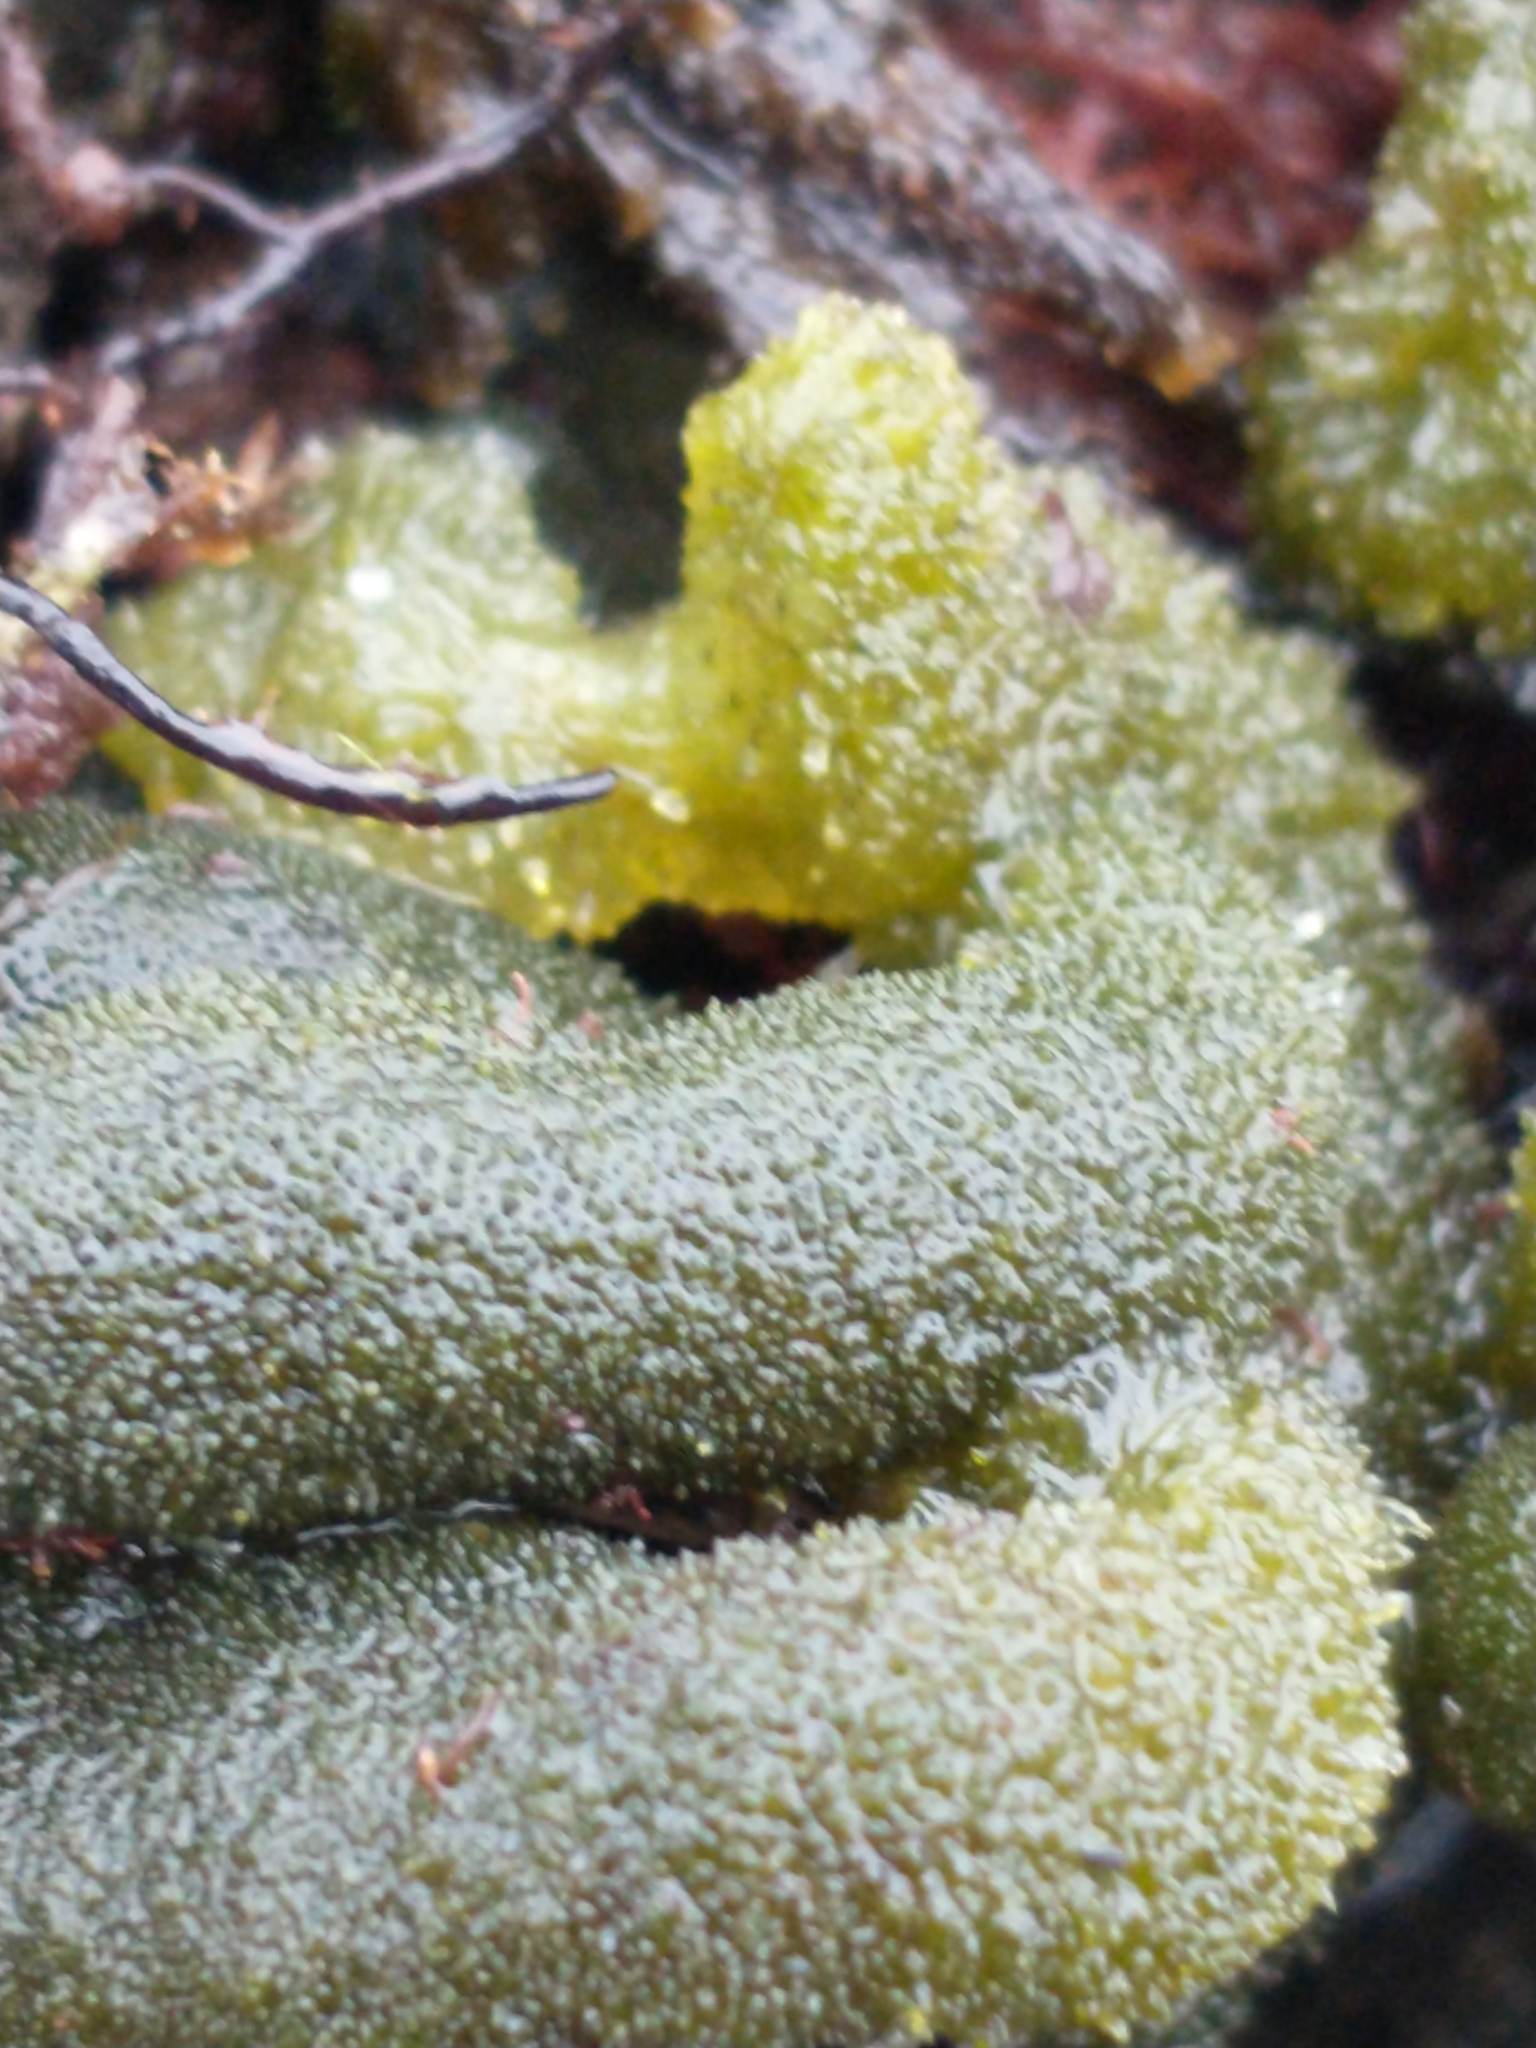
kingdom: Plantae
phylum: Chlorophyta
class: Ulvophyceae
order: Bryopsidales
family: Codiaceae
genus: Codium
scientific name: Codium fragile
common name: Dead man's fingers
